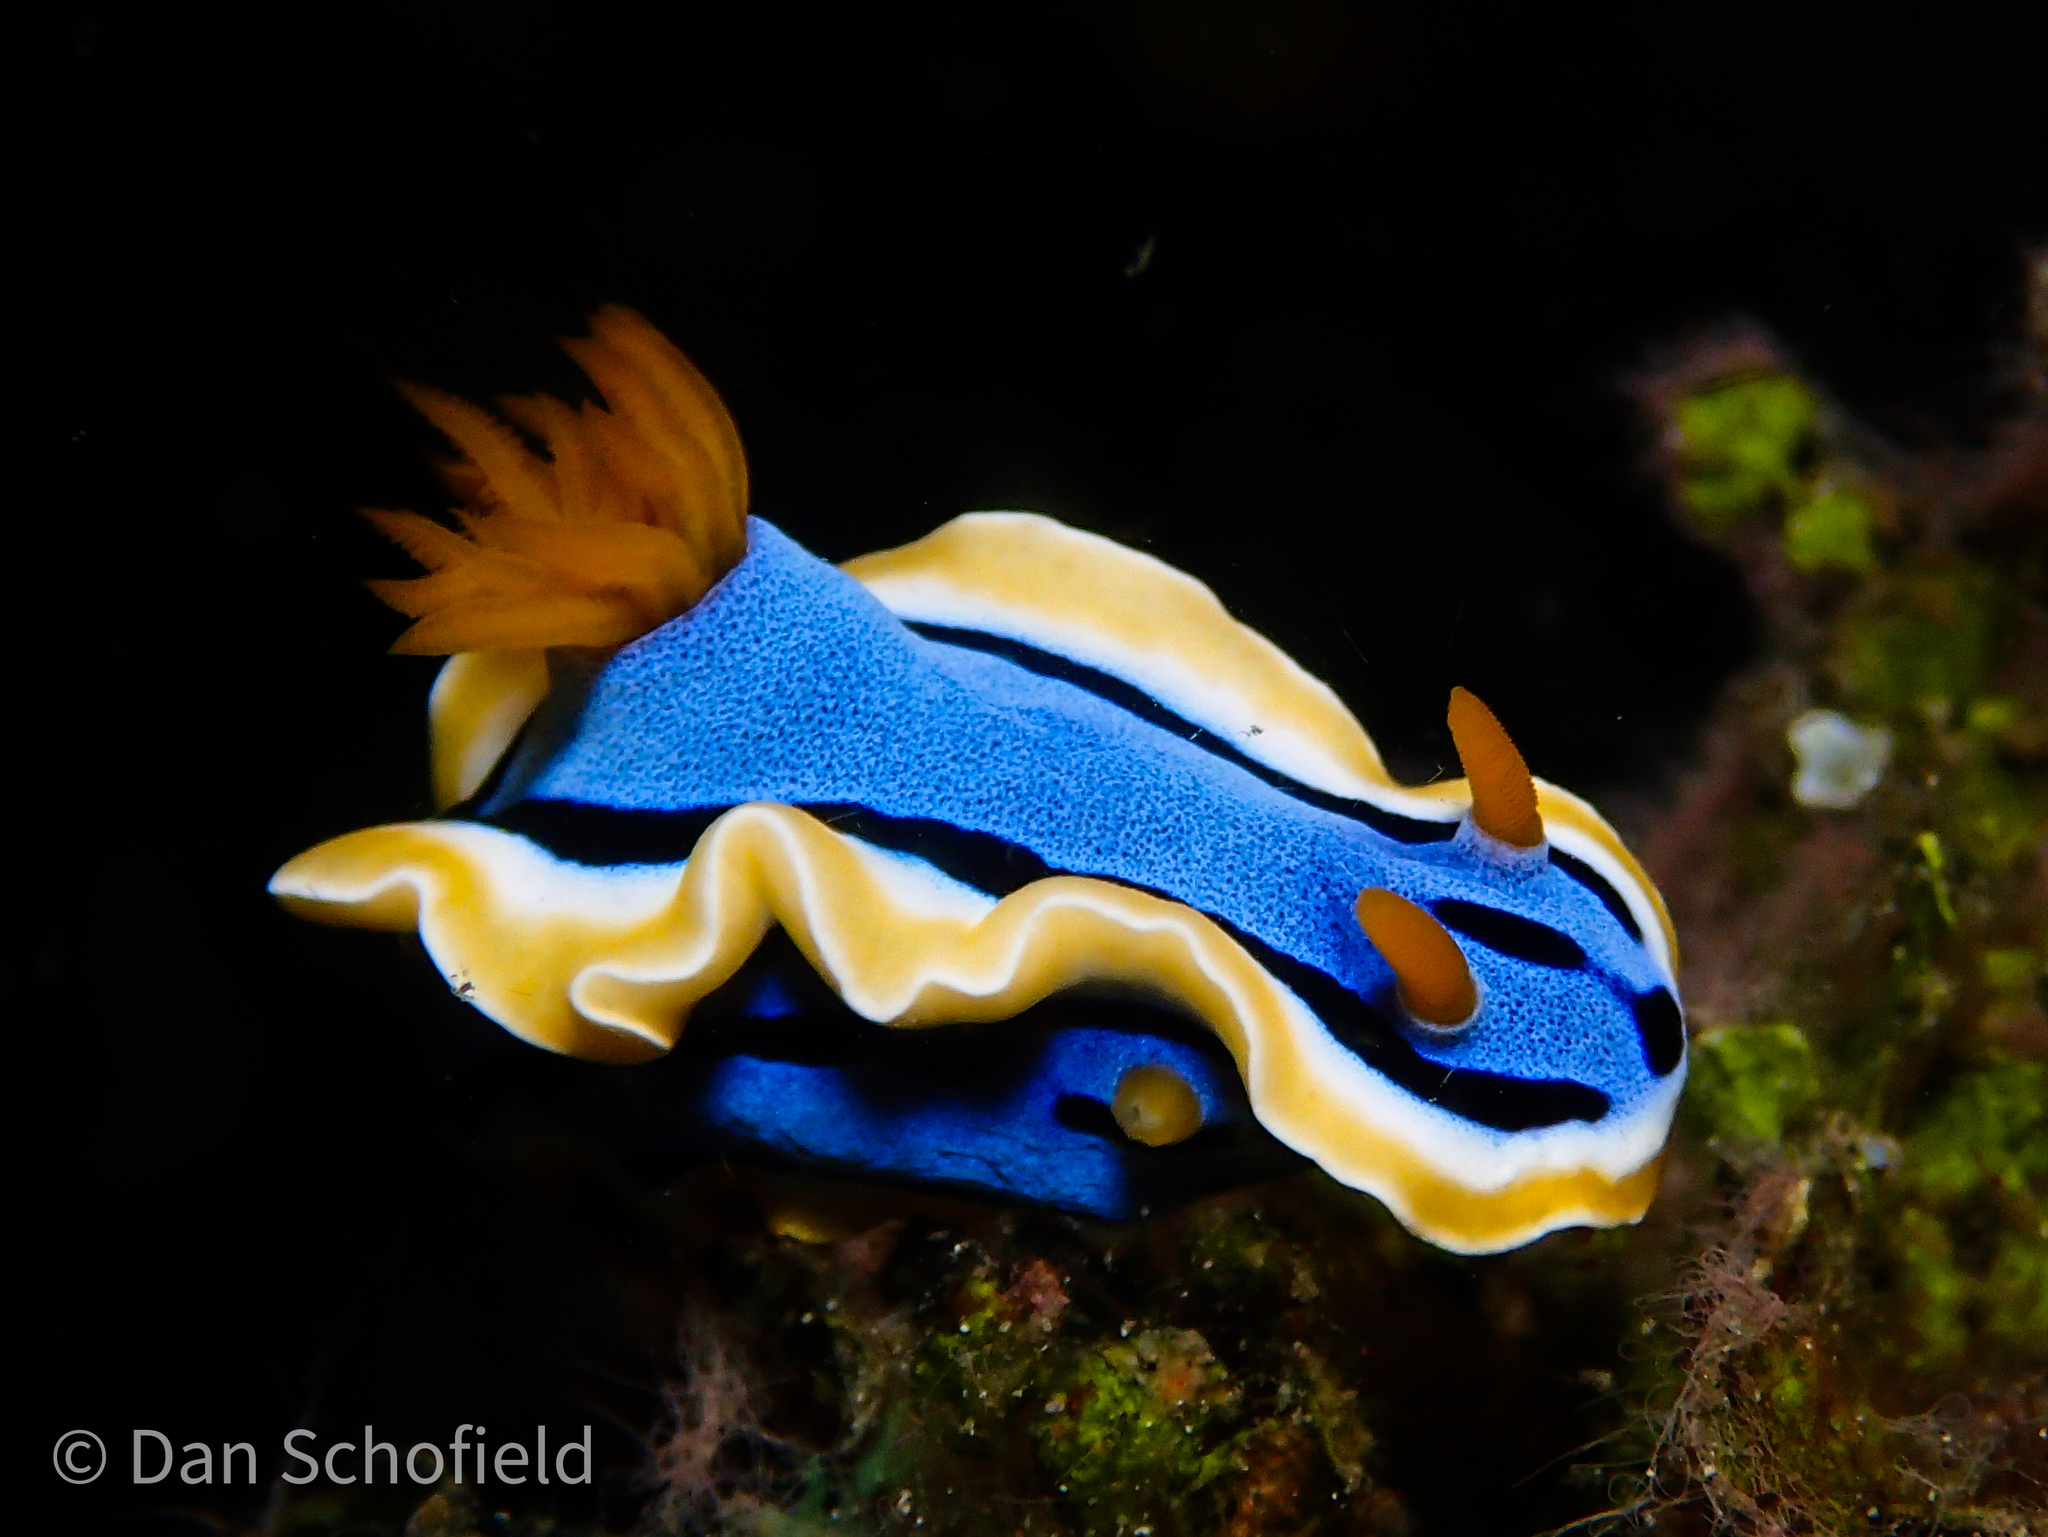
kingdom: Animalia
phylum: Mollusca
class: Gastropoda
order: Nudibranchia
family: Chromodorididae
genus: Chromodoris
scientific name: Chromodoris annae
